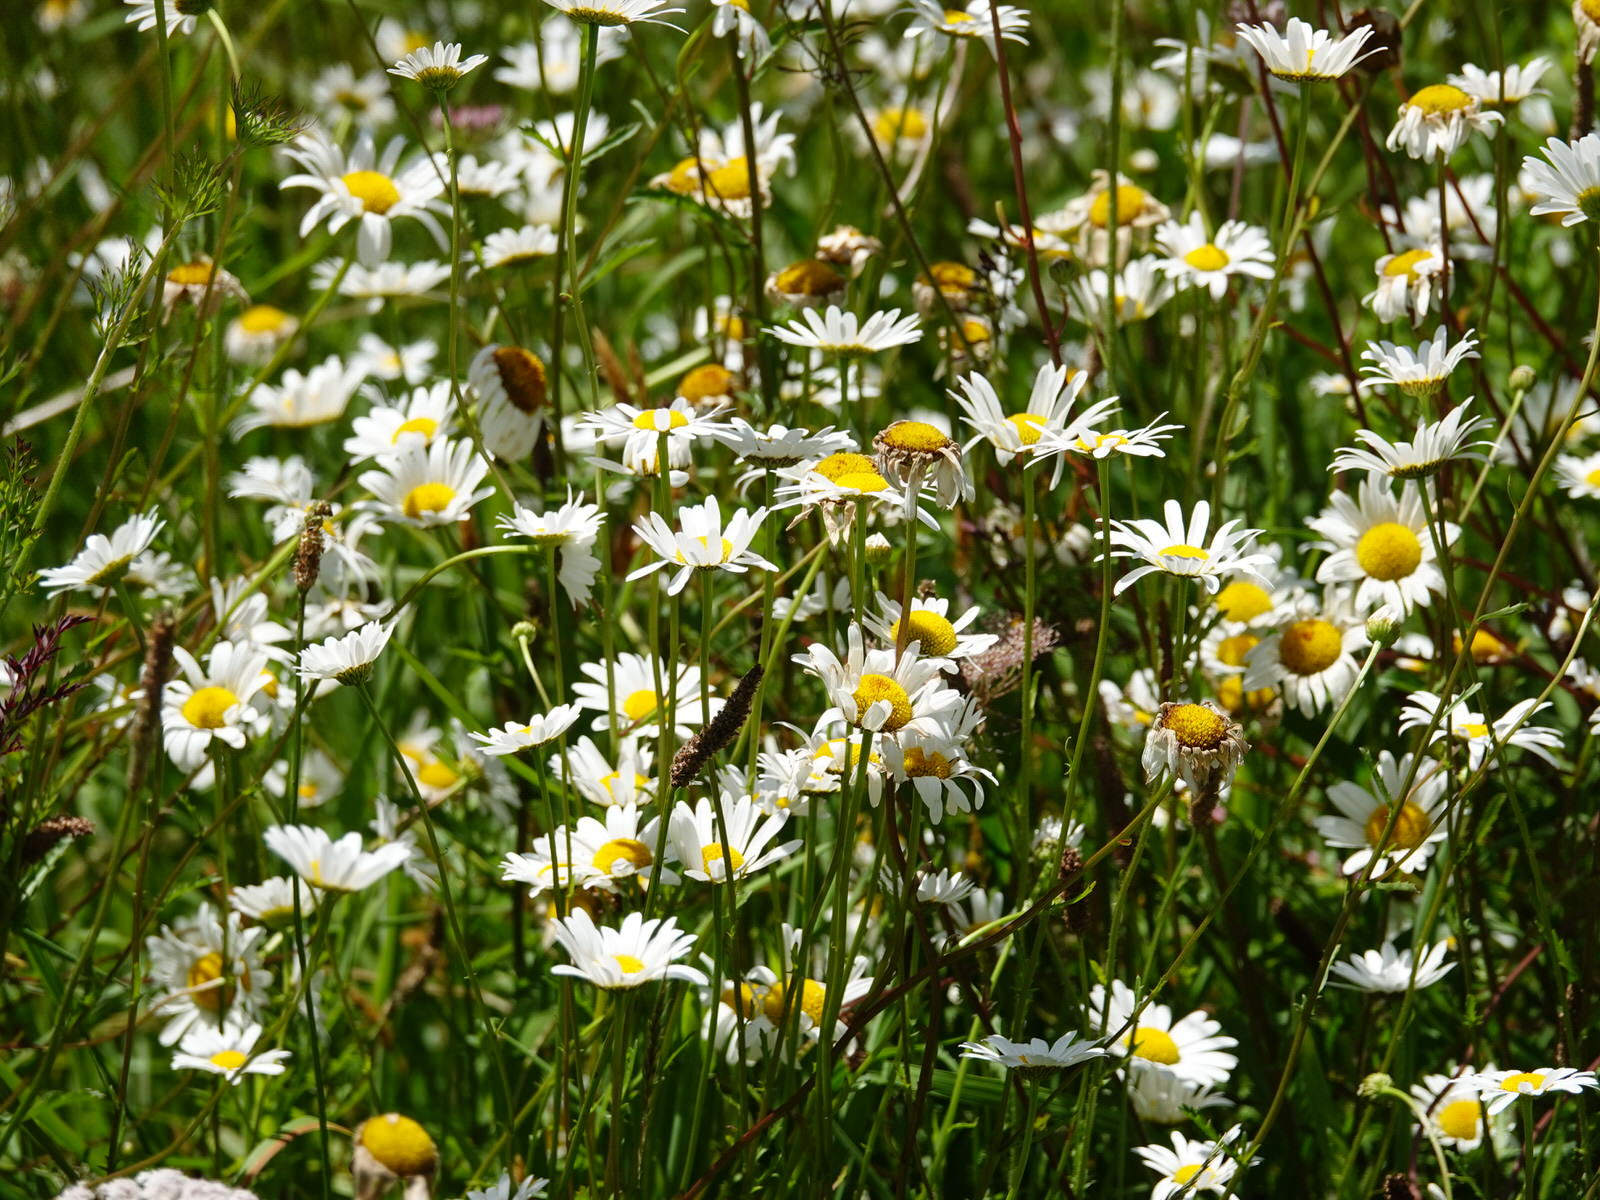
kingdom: Plantae
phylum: Tracheophyta
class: Magnoliopsida
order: Asterales
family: Asteraceae
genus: Leucanthemum
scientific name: Leucanthemum vulgare
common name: Oxeye daisy
